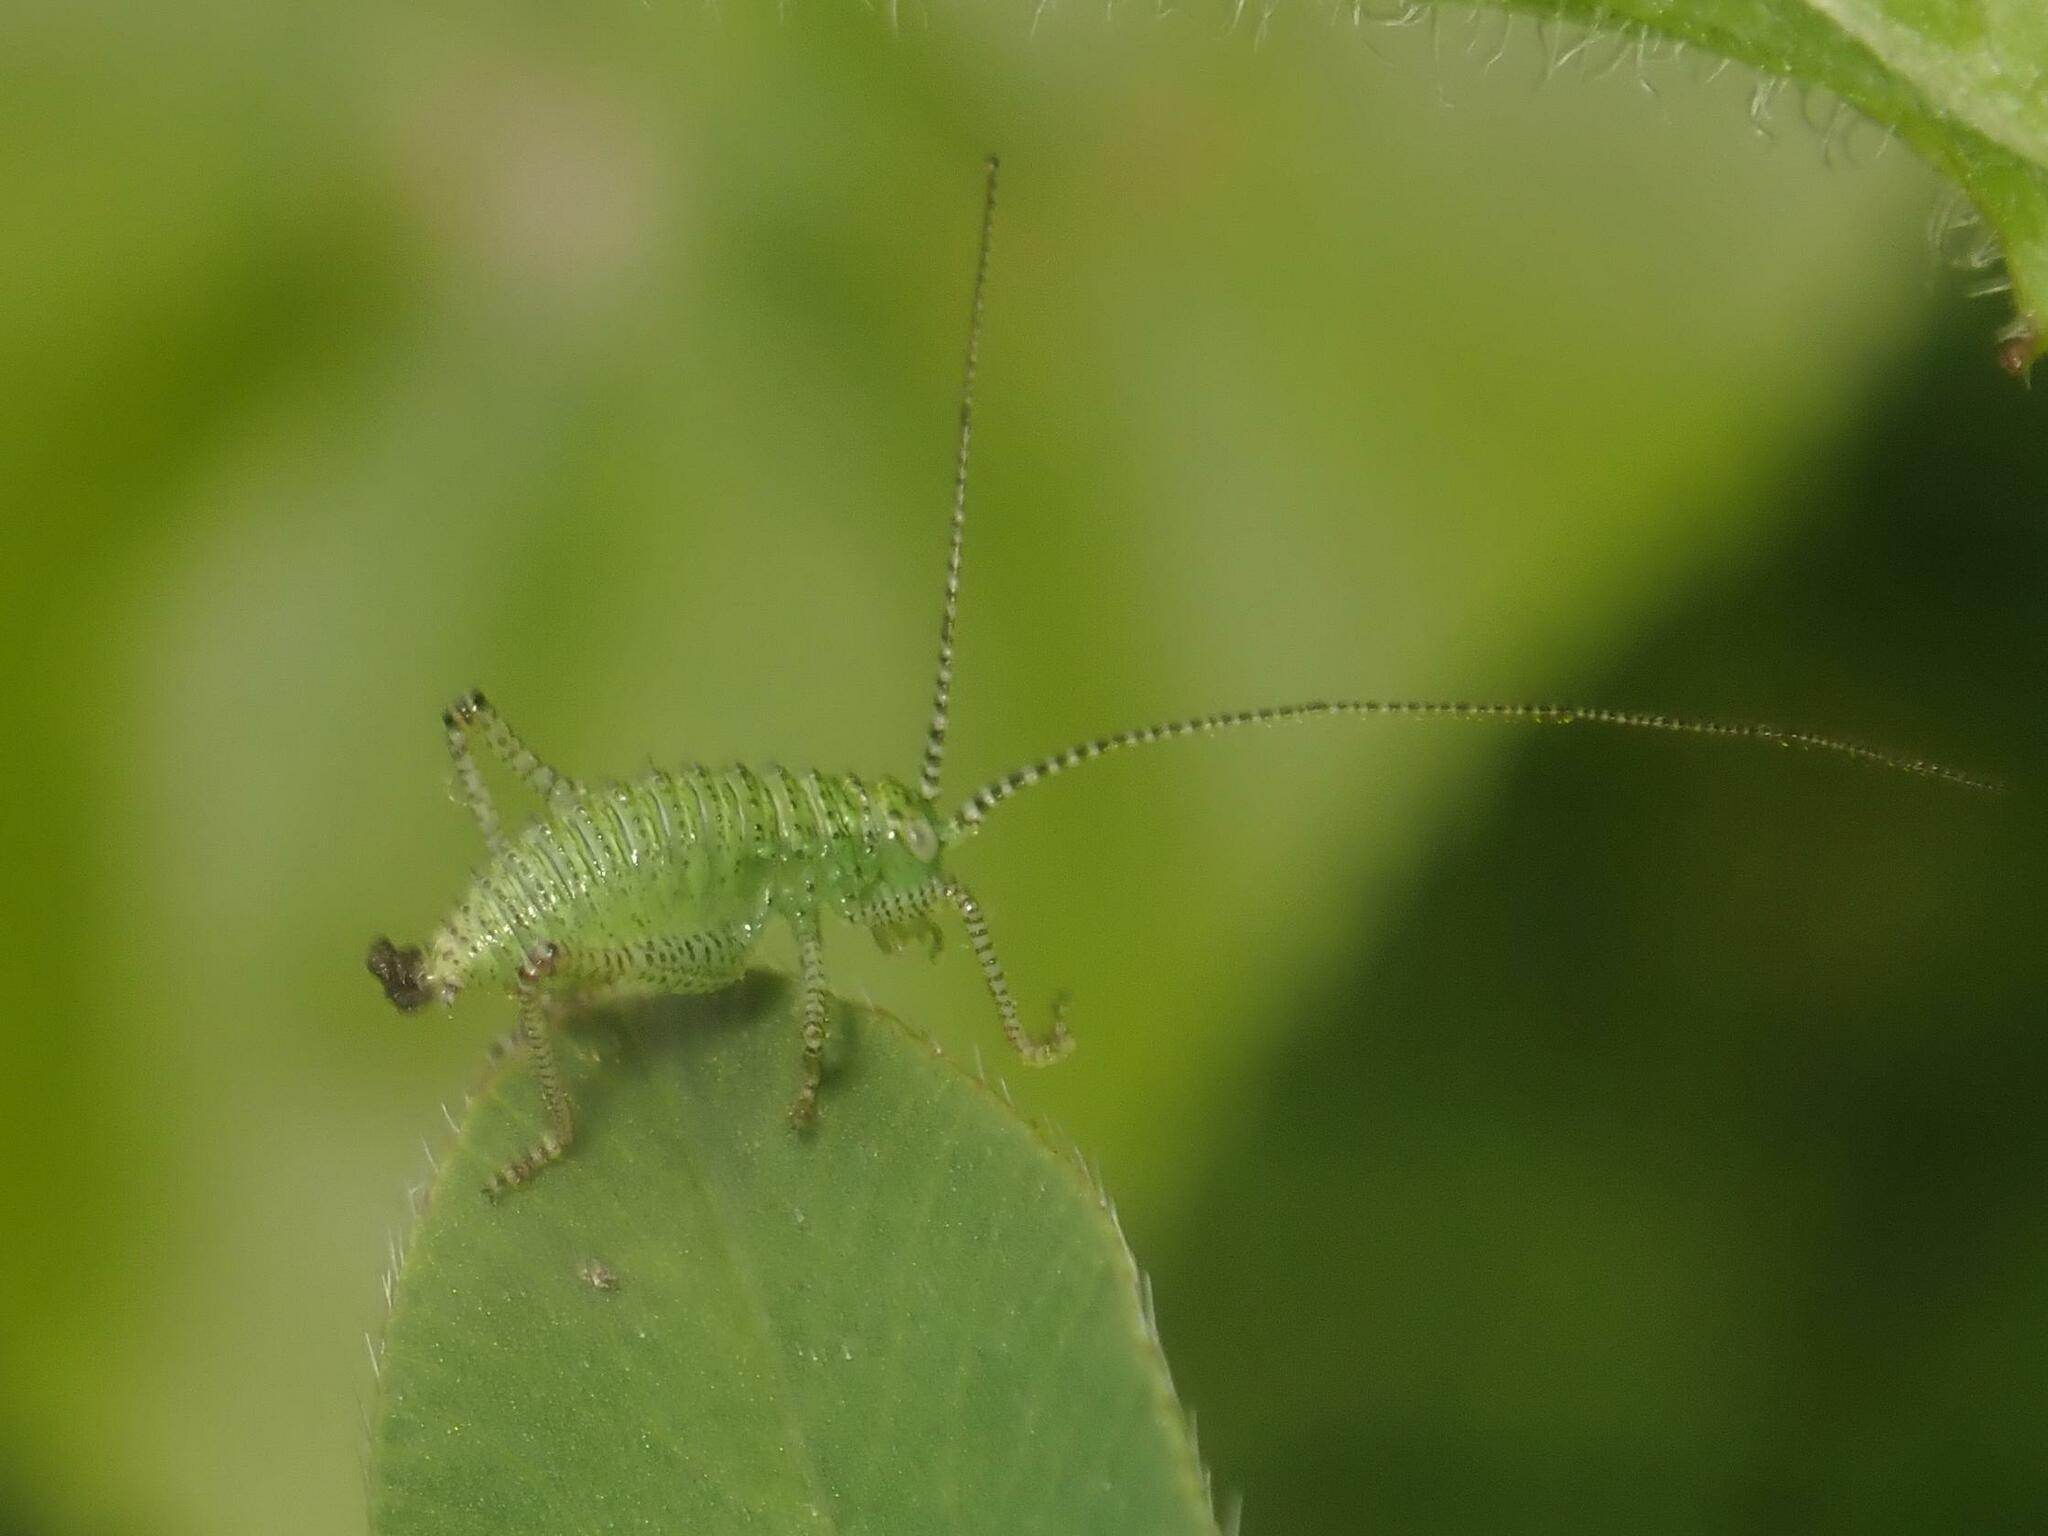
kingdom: Animalia
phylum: Arthropoda
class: Insecta
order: Orthoptera
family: Tettigoniidae
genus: Leptophyes
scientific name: Leptophyes punctatissima
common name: Speckled bush-cricket
